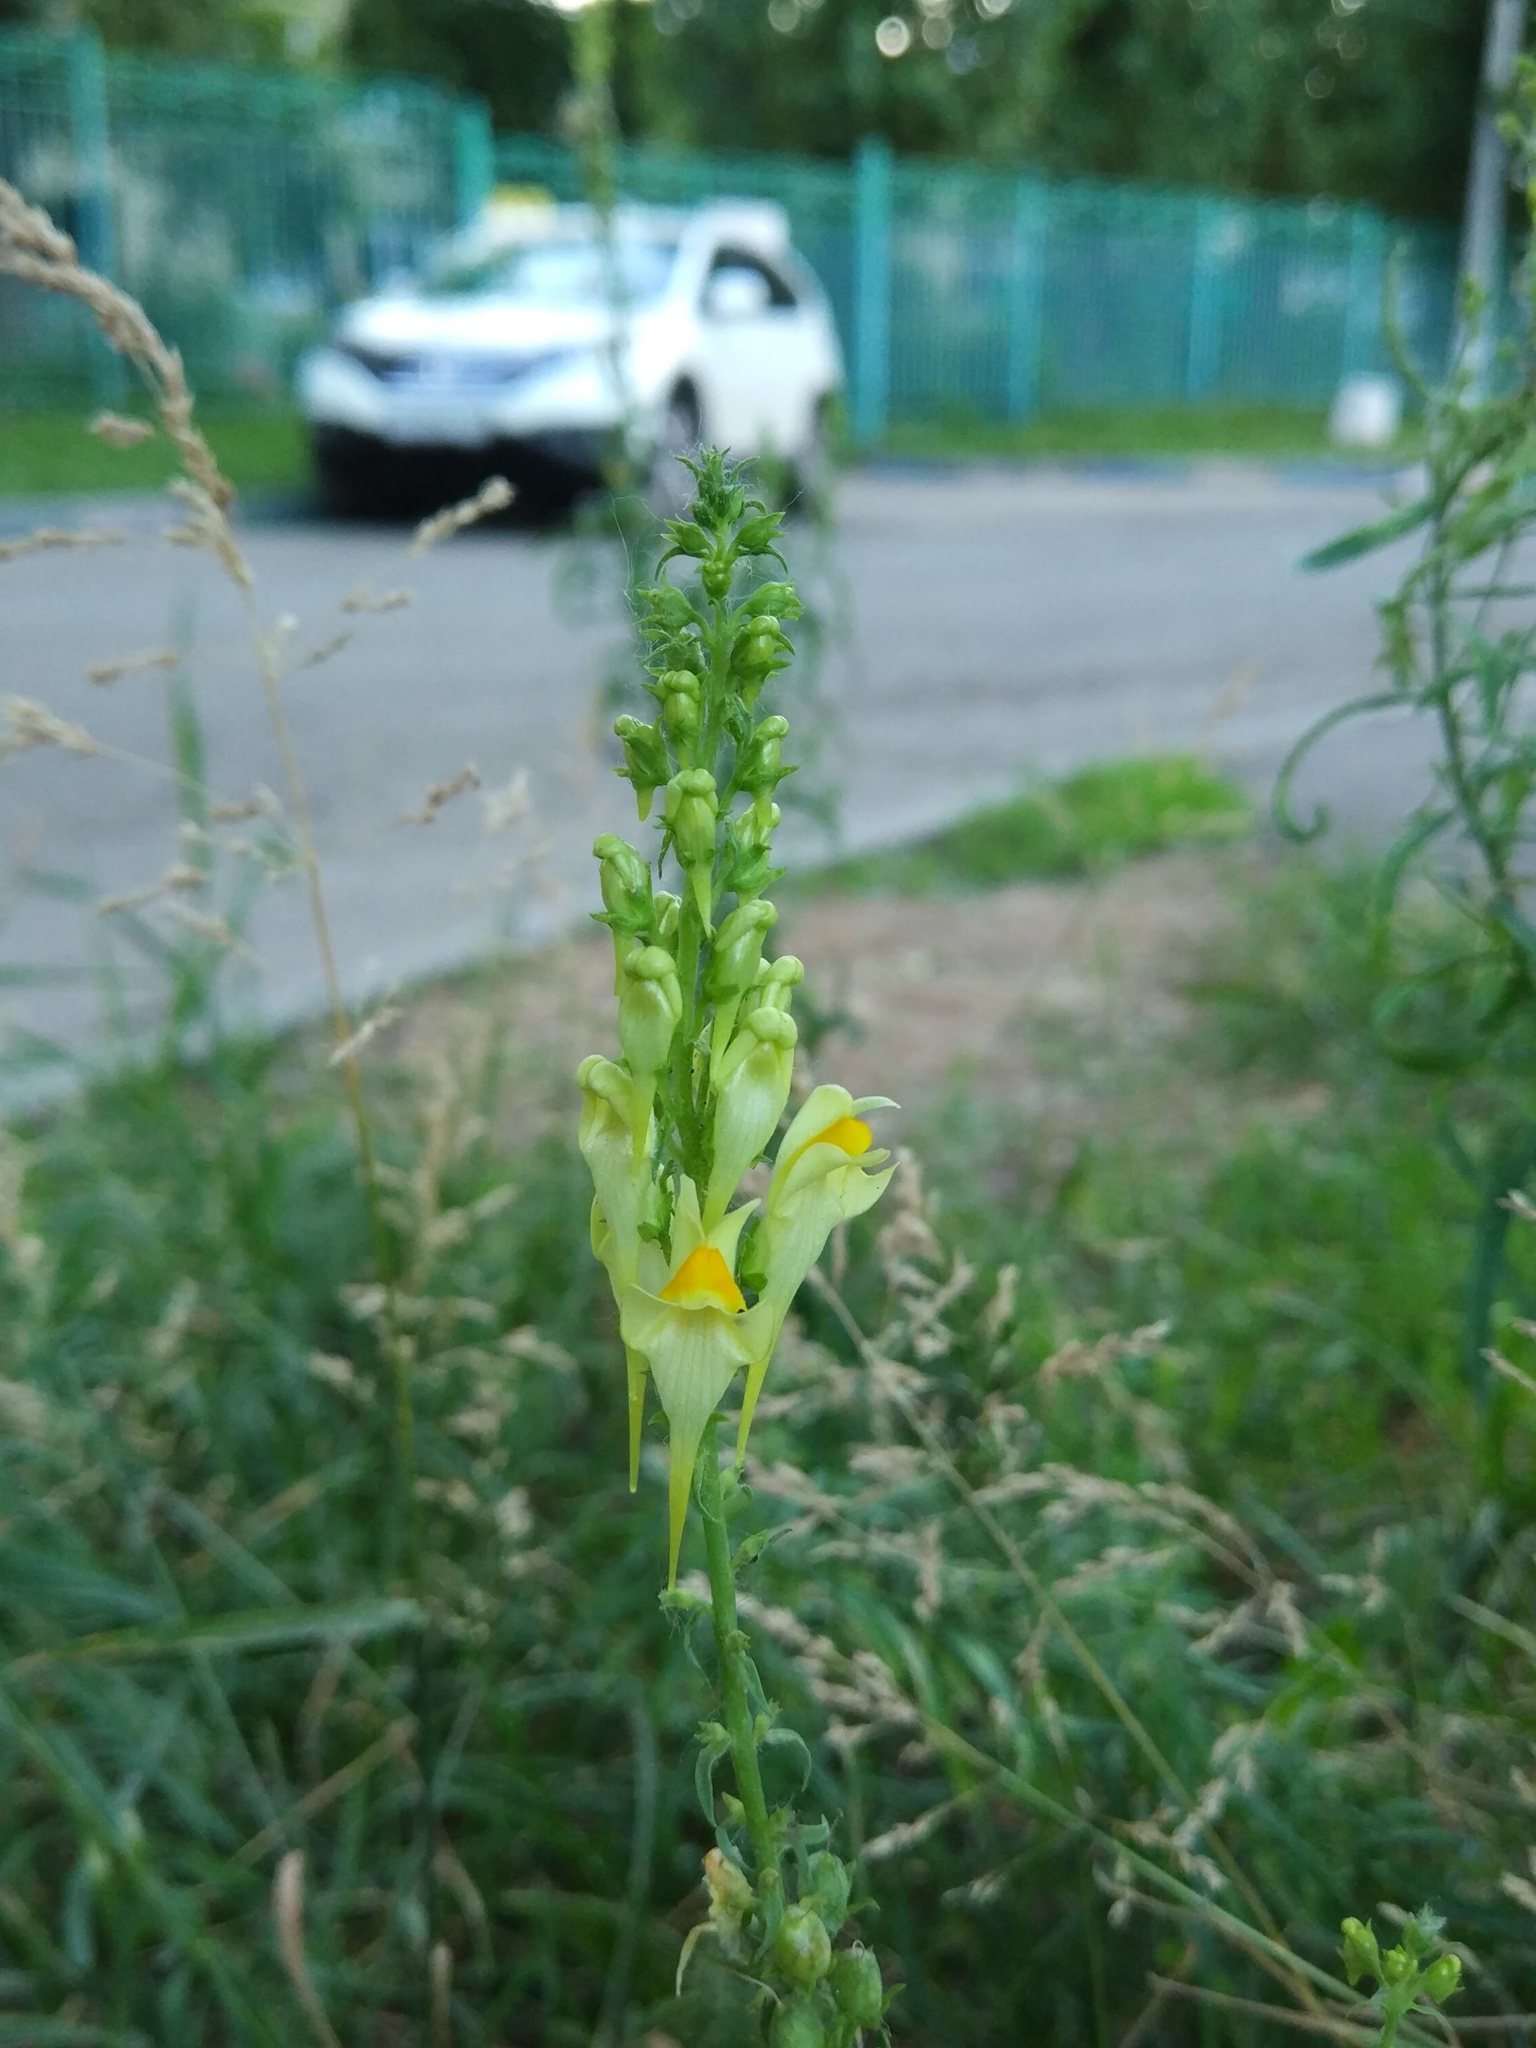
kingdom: Plantae
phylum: Tracheophyta
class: Magnoliopsida
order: Lamiales
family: Plantaginaceae
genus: Linaria
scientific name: Linaria vulgaris
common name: Butter and eggs
